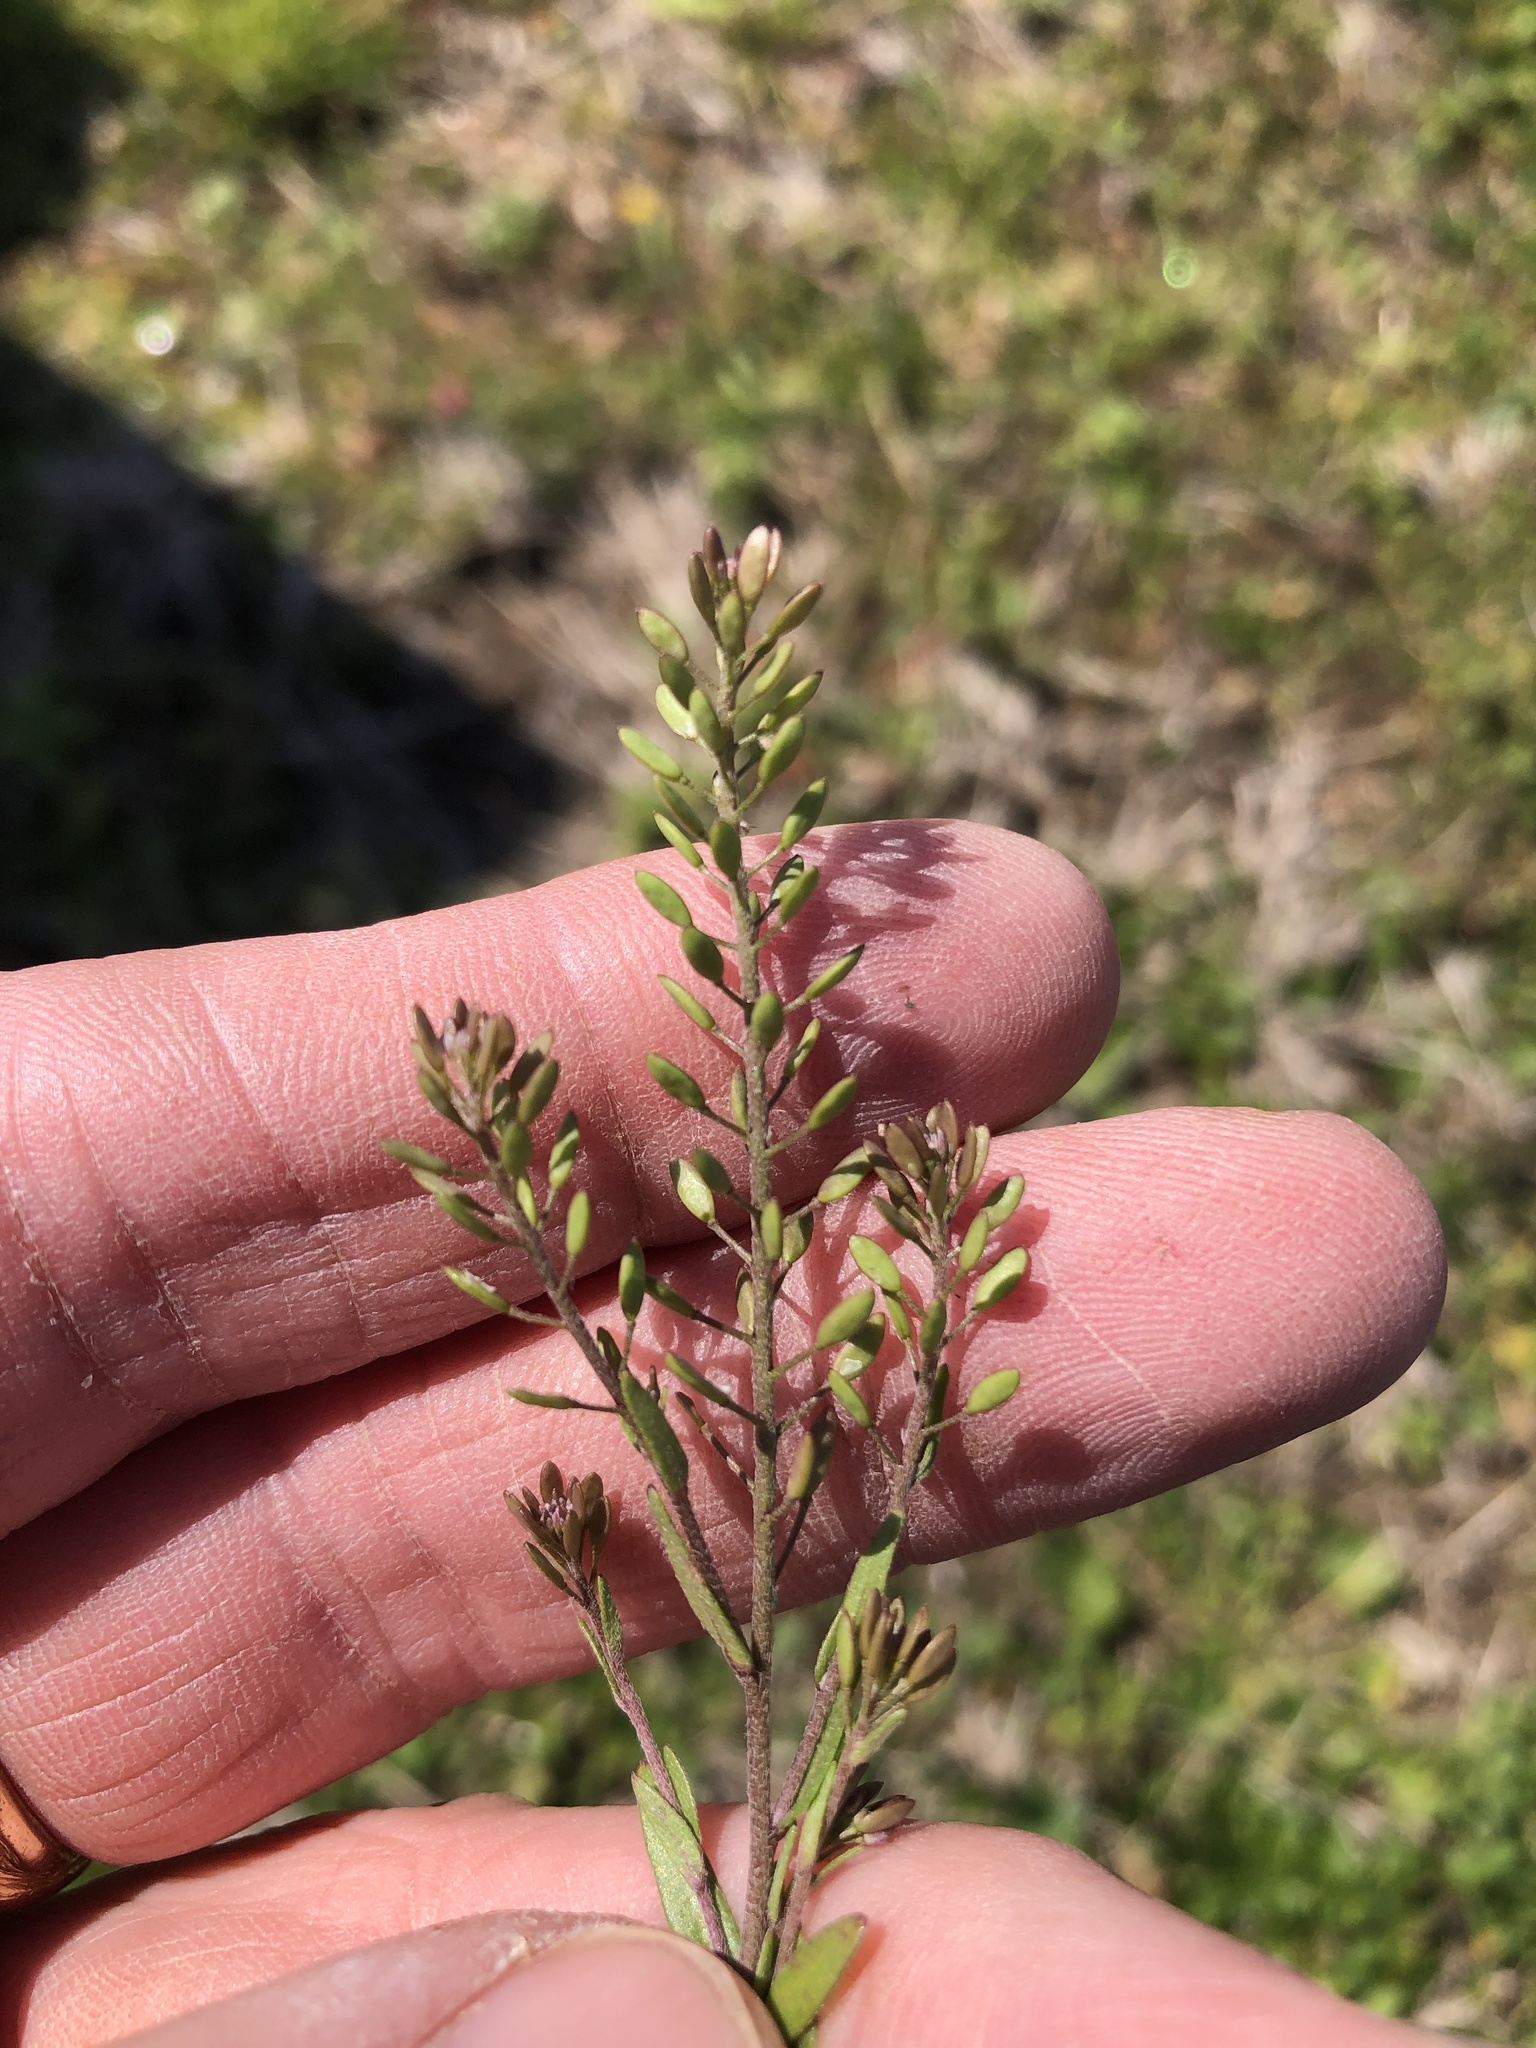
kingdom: Plantae
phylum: Tracheophyta
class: Magnoliopsida
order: Brassicales
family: Brassicaceae
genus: Abdra
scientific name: Abdra brachycarpa
